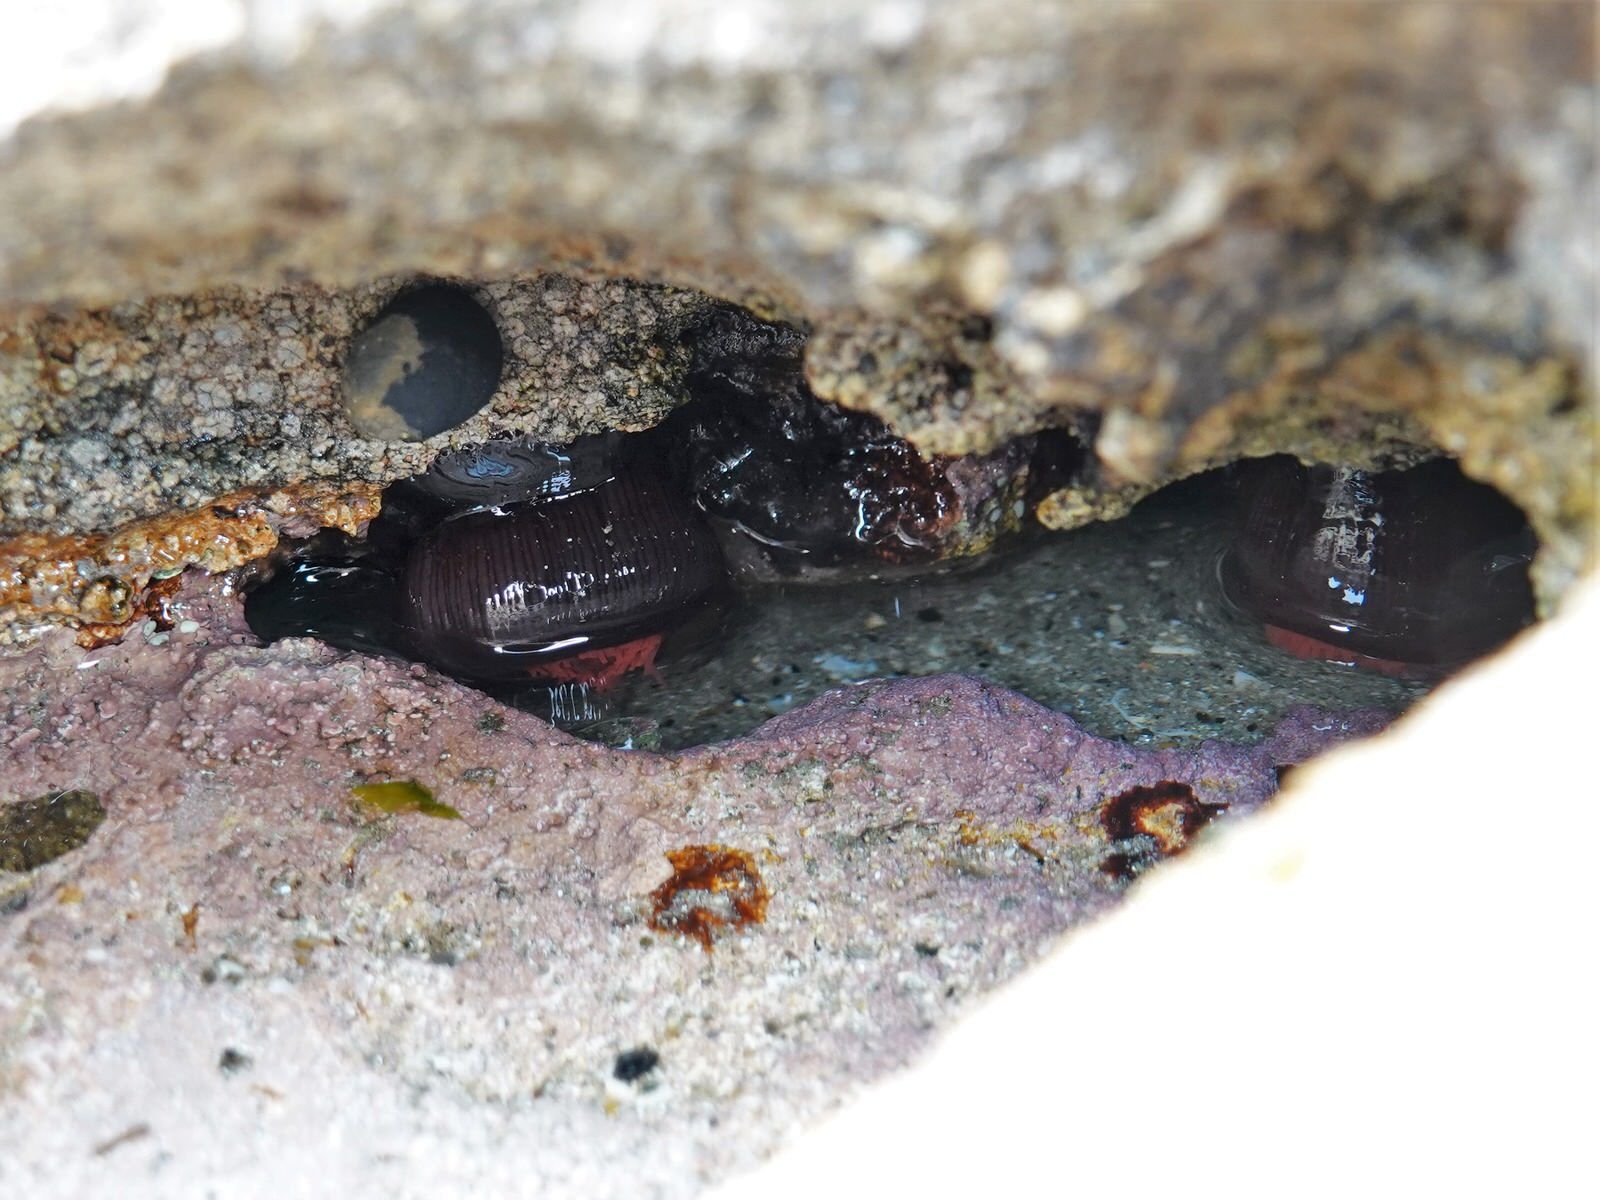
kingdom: Animalia
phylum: Cnidaria
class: Anthozoa
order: Actiniaria
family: Actiniidae
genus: Actinia
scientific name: Actinia tenebrosa
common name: Waratah anemone
